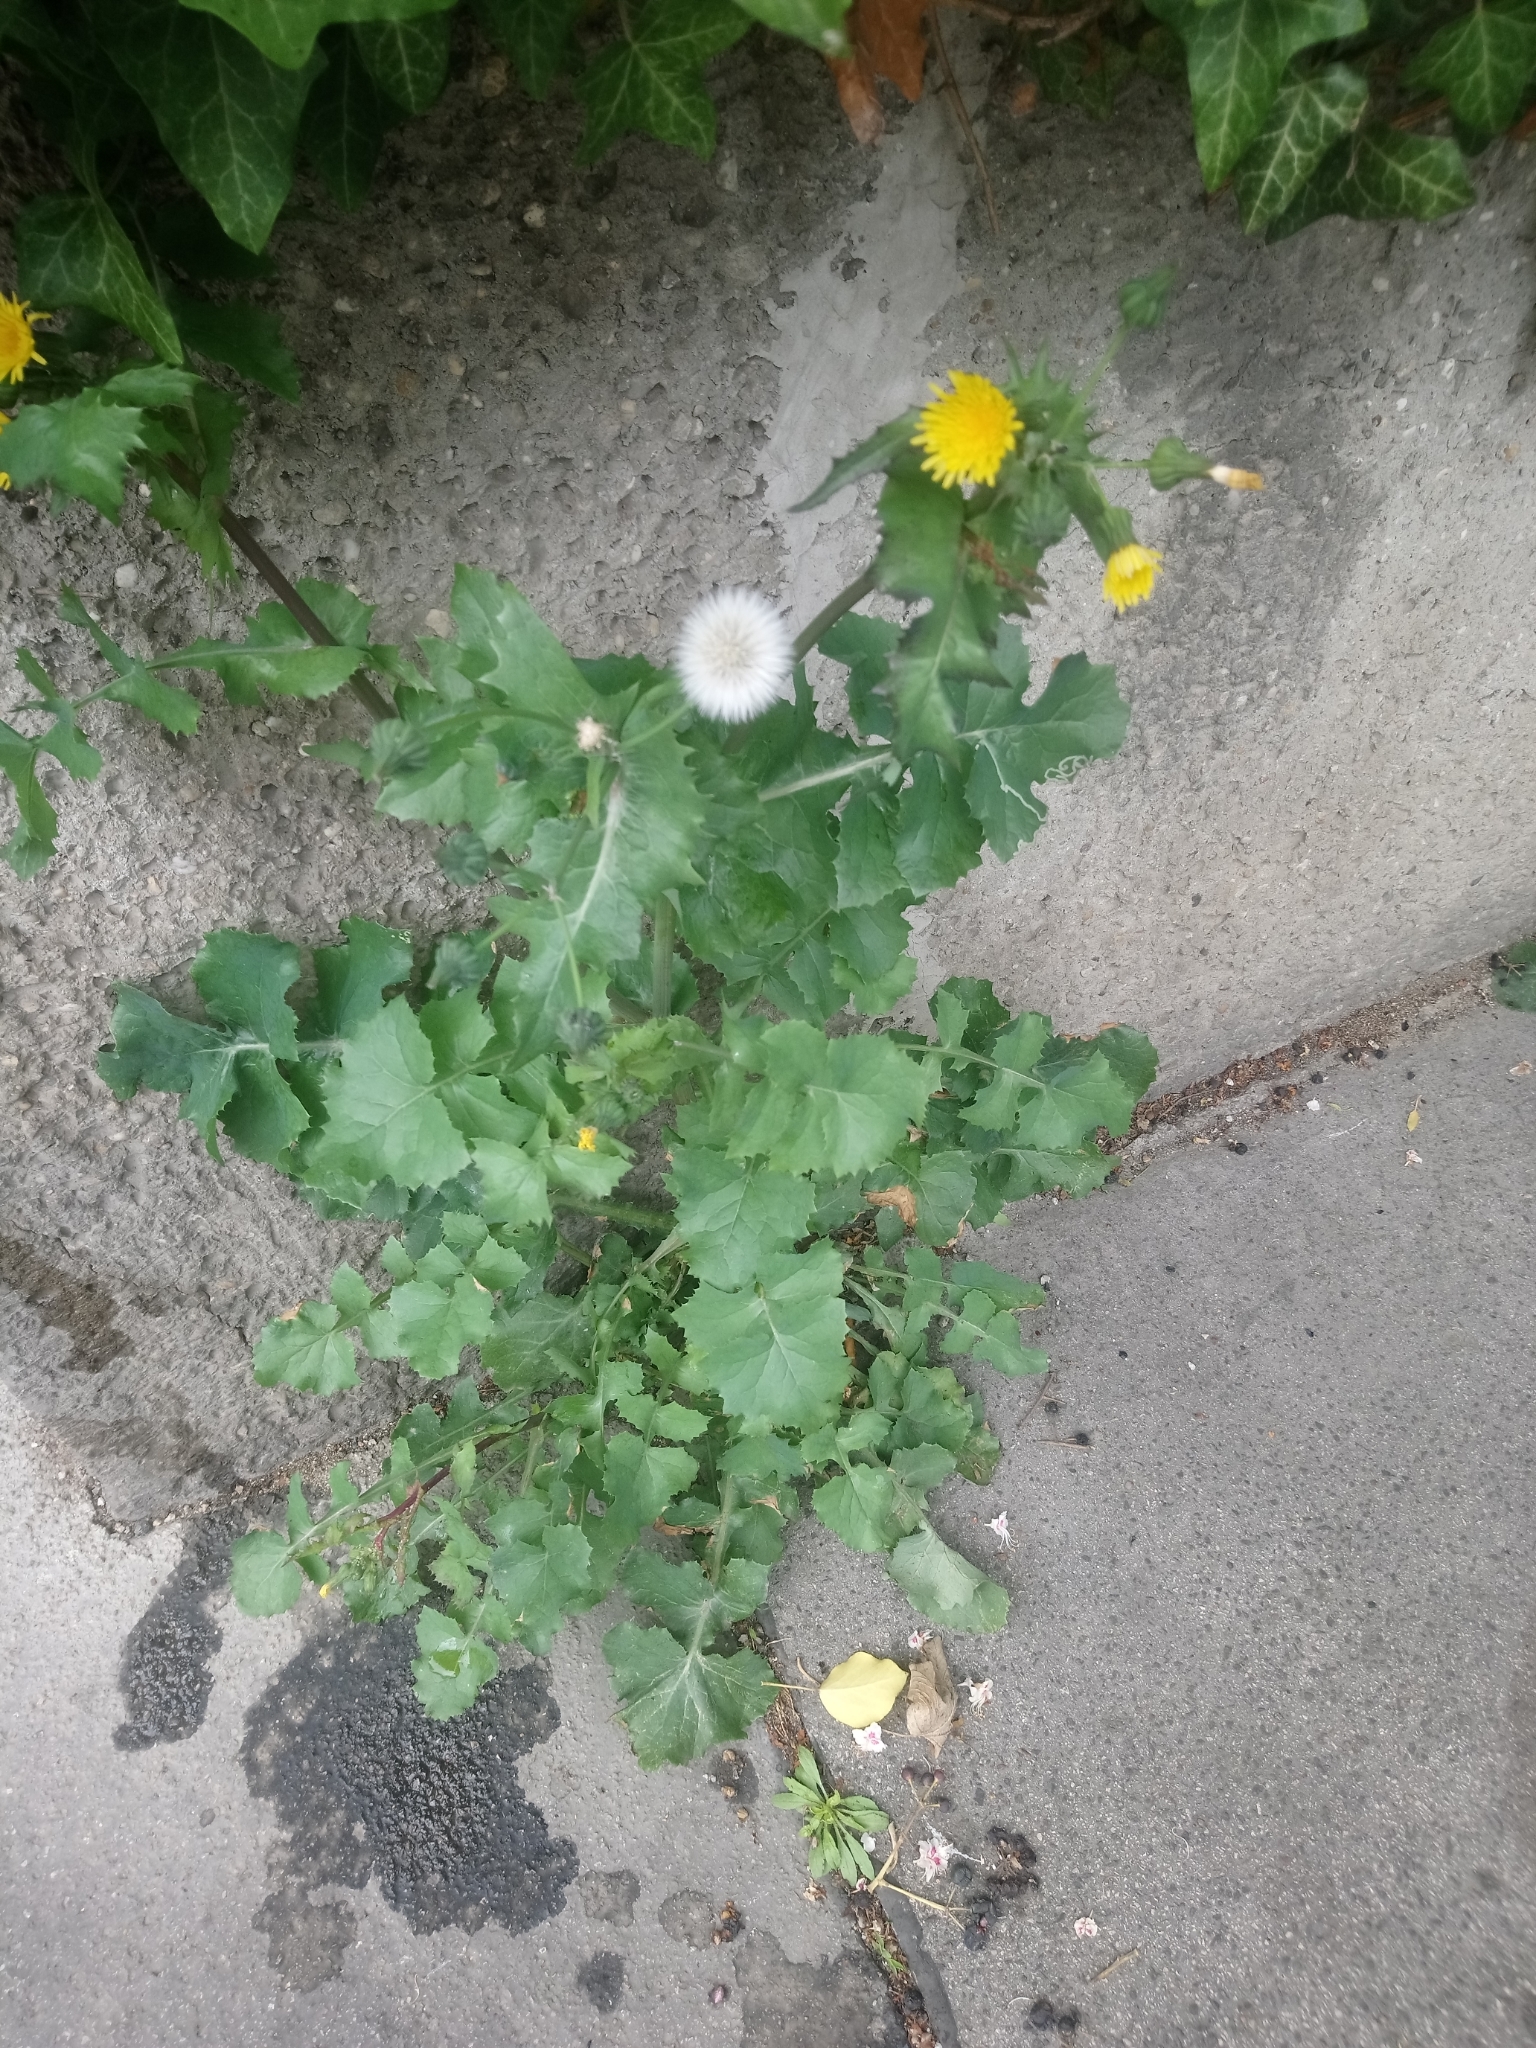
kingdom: Plantae
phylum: Tracheophyta
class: Magnoliopsida
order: Asterales
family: Asteraceae
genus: Sonchus
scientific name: Sonchus oleraceus
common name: Common sowthistle
